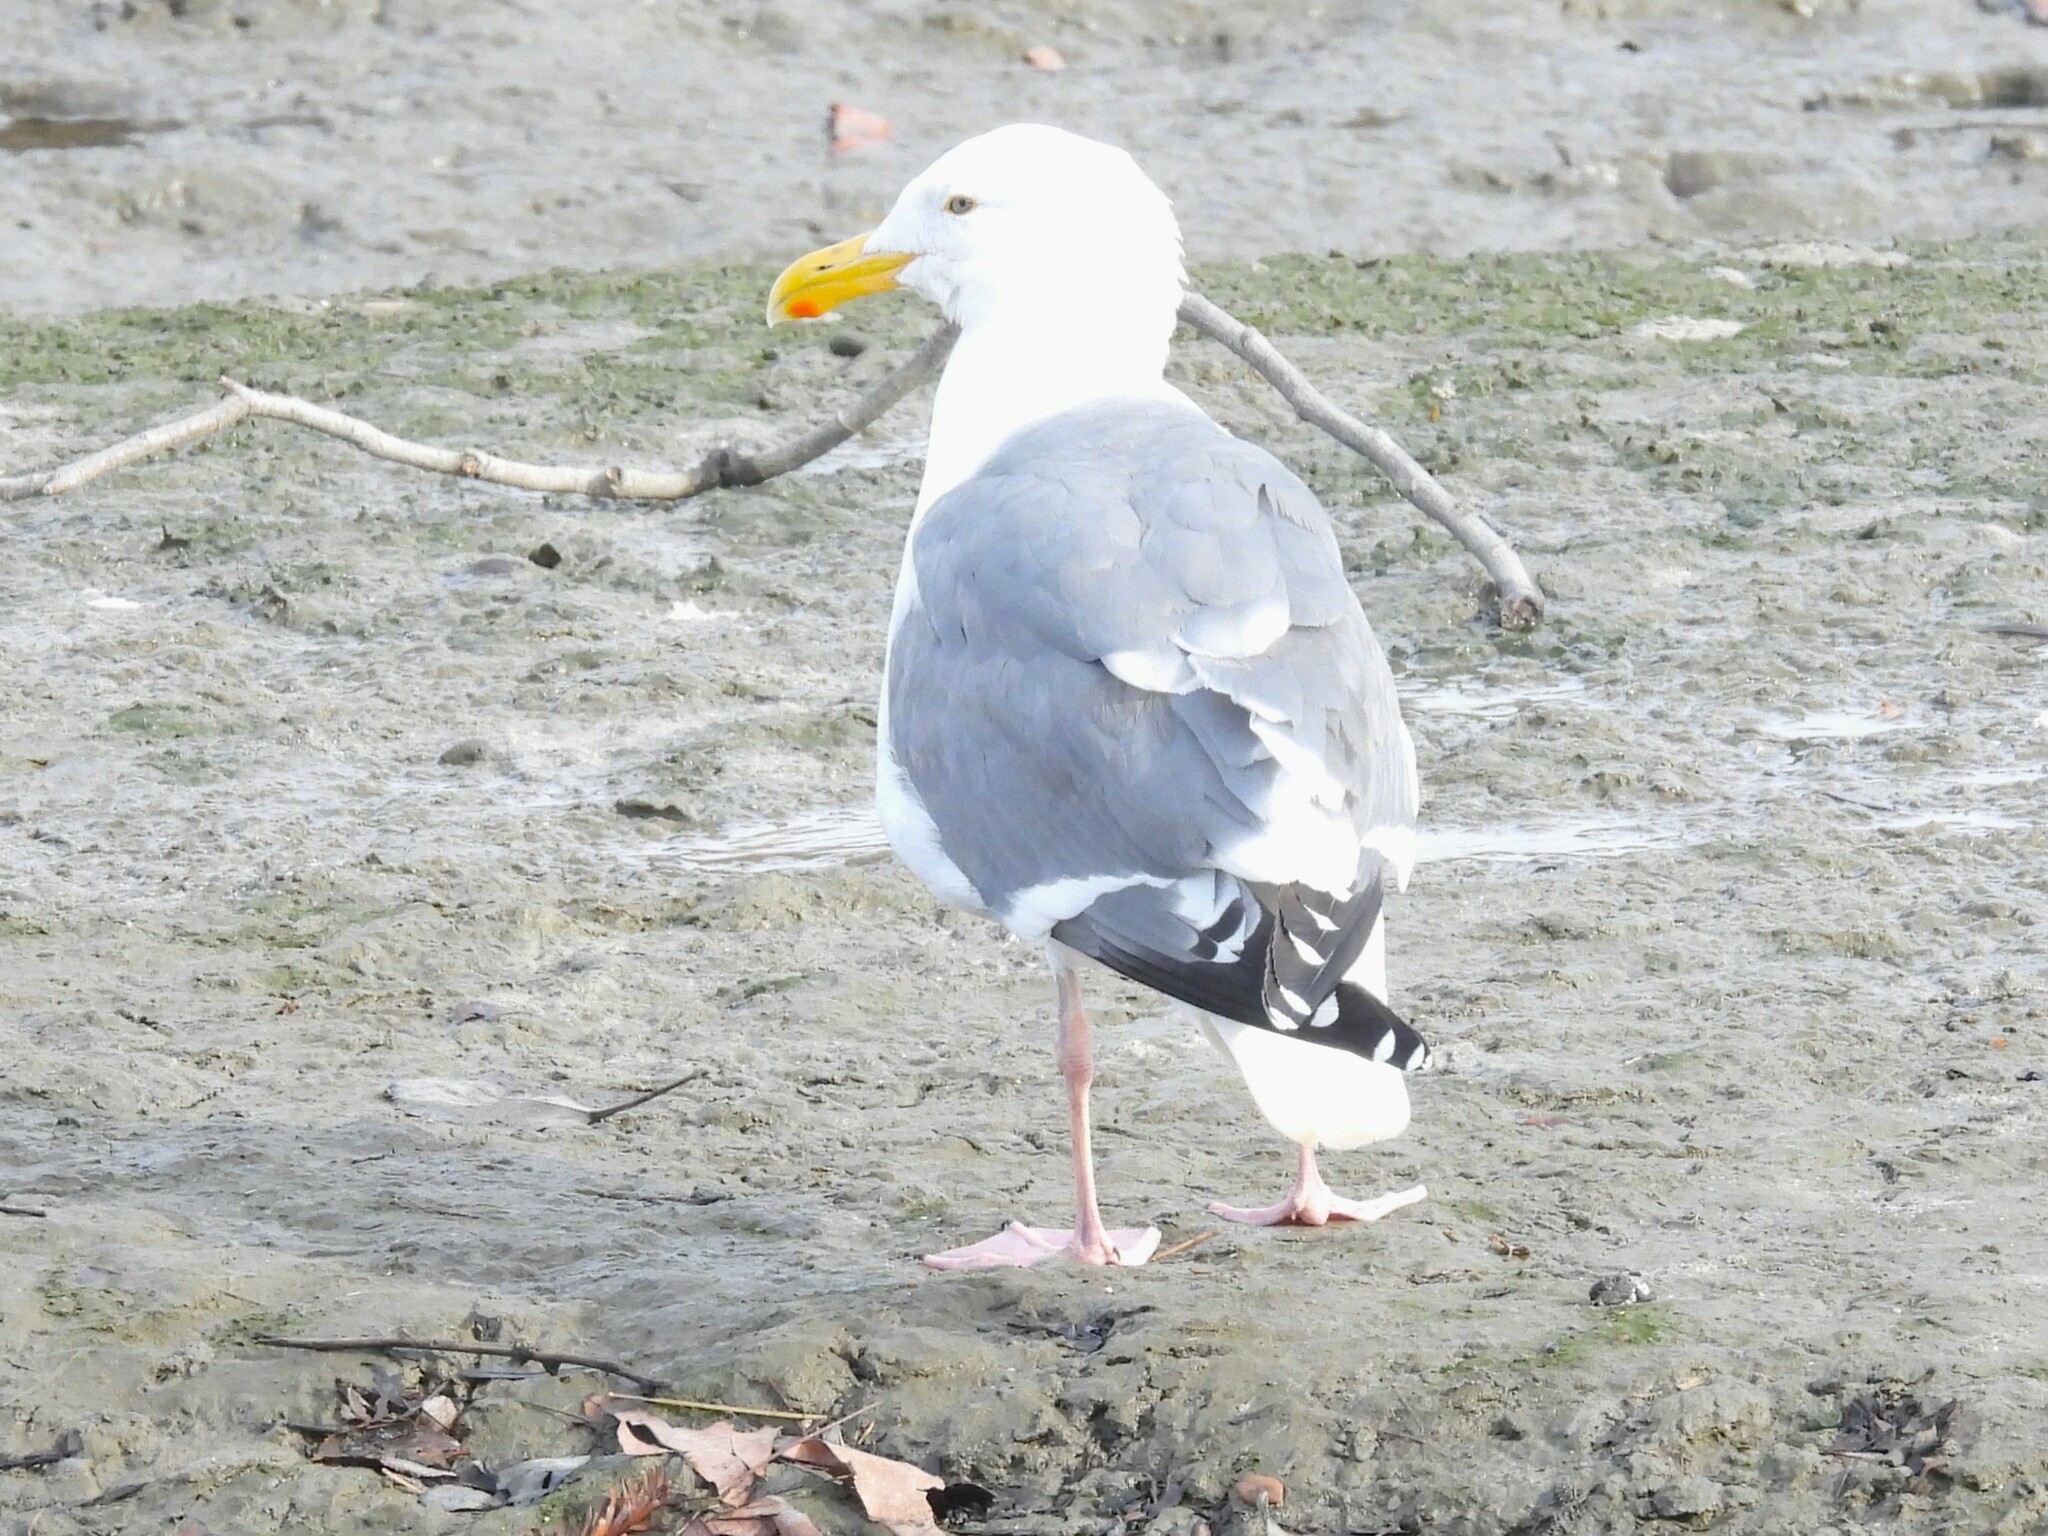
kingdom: Animalia
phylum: Chordata
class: Aves
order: Charadriiformes
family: Laridae
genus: Larus
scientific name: Larus occidentalis
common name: Western gull
